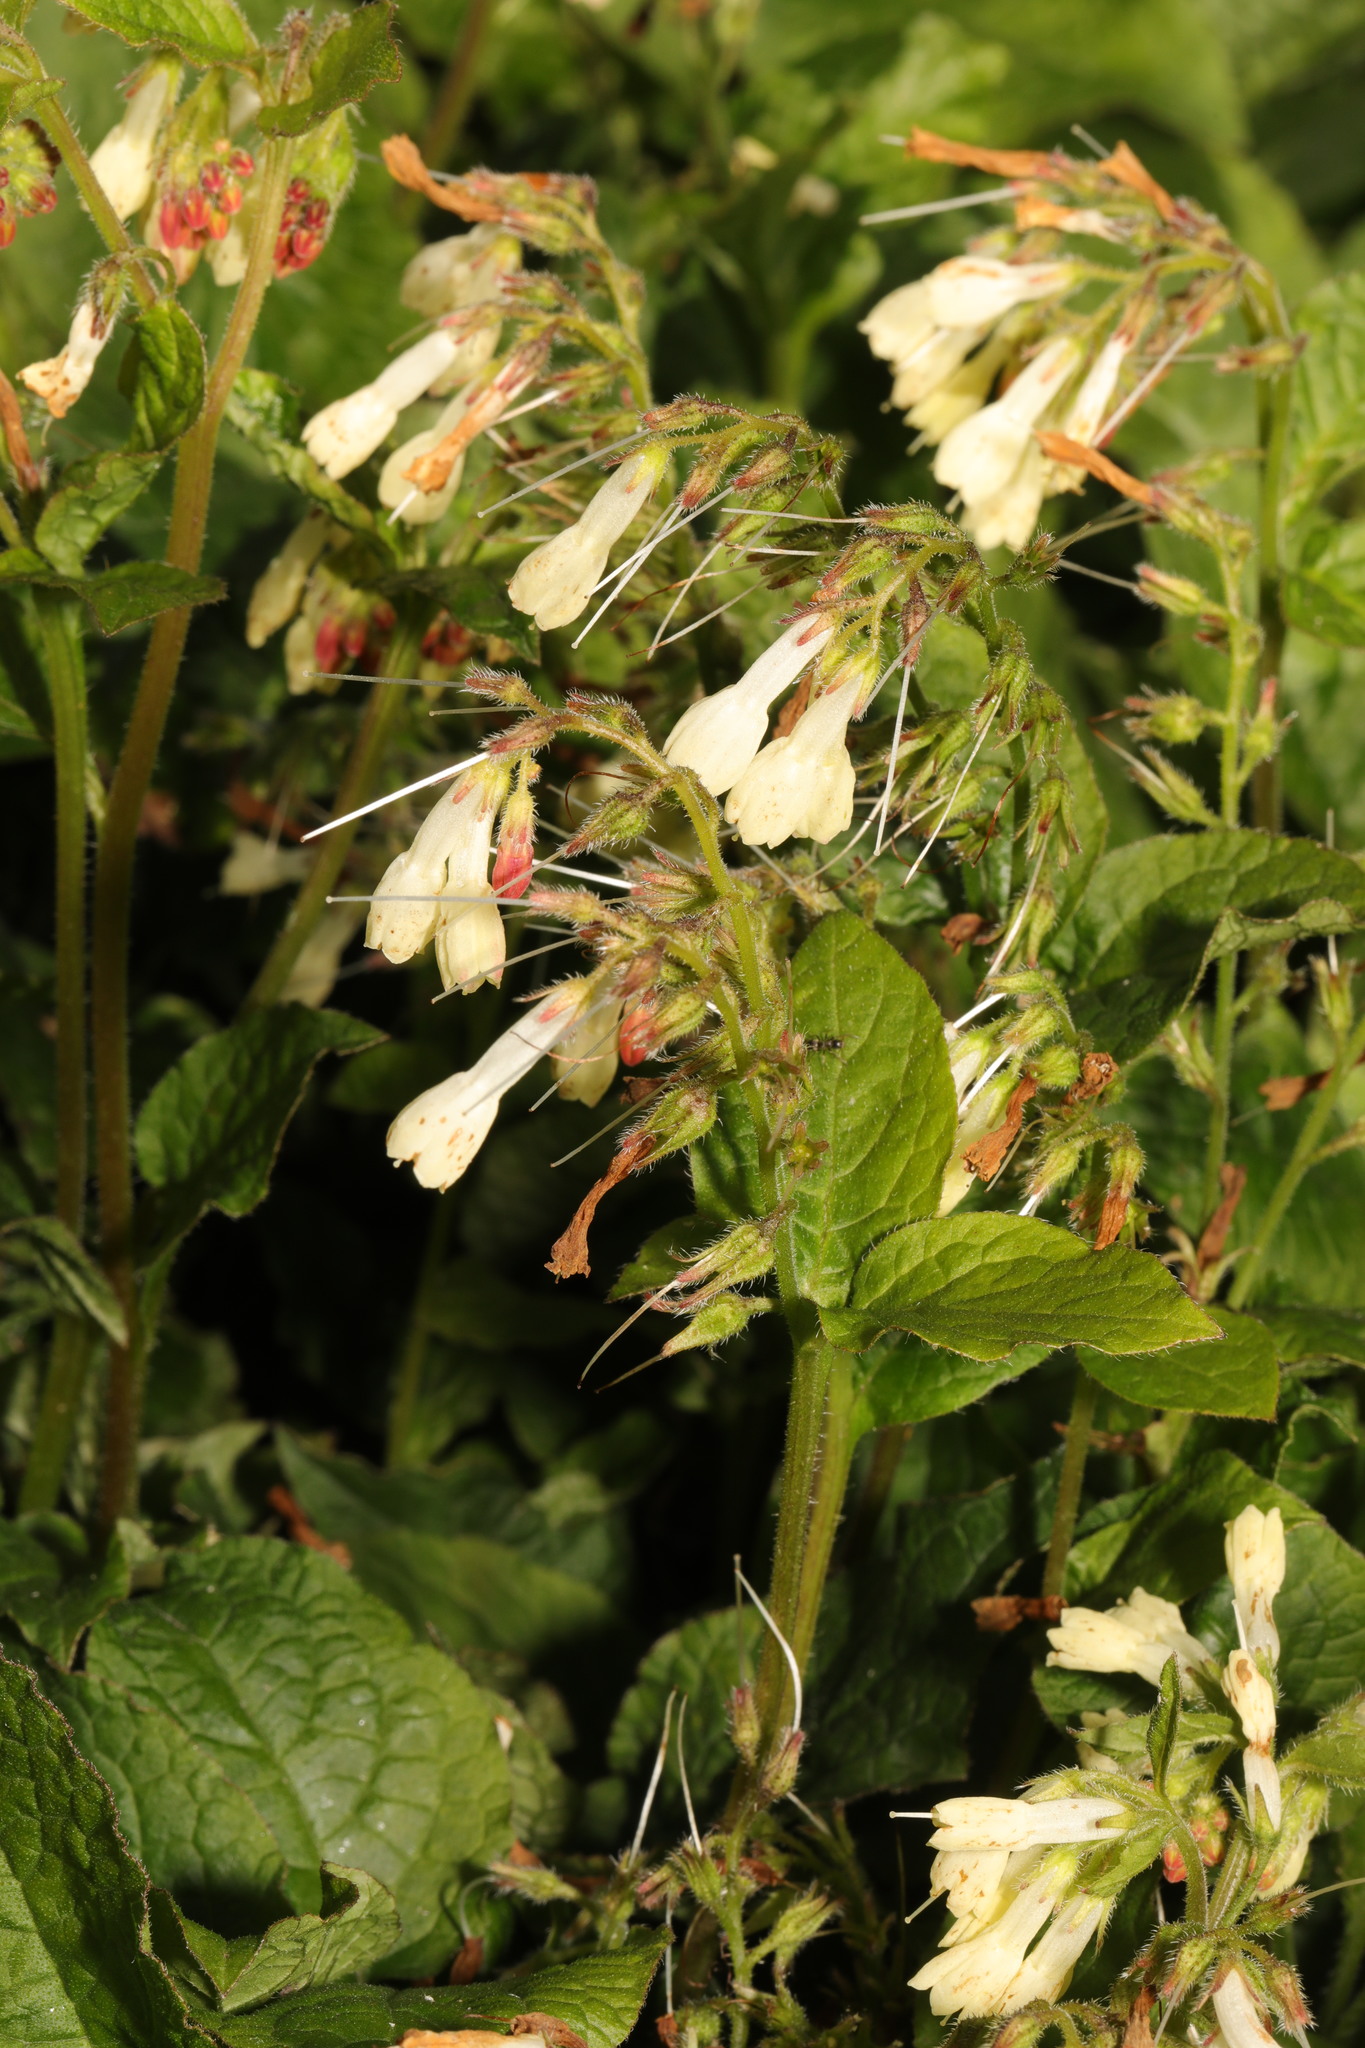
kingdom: Plantae
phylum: Tracheophyta
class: Magnoliopsida
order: Boraginales
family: Boraginaceae
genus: Symphytum
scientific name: Symphytum grandiflorum
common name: Creeping comfrey
